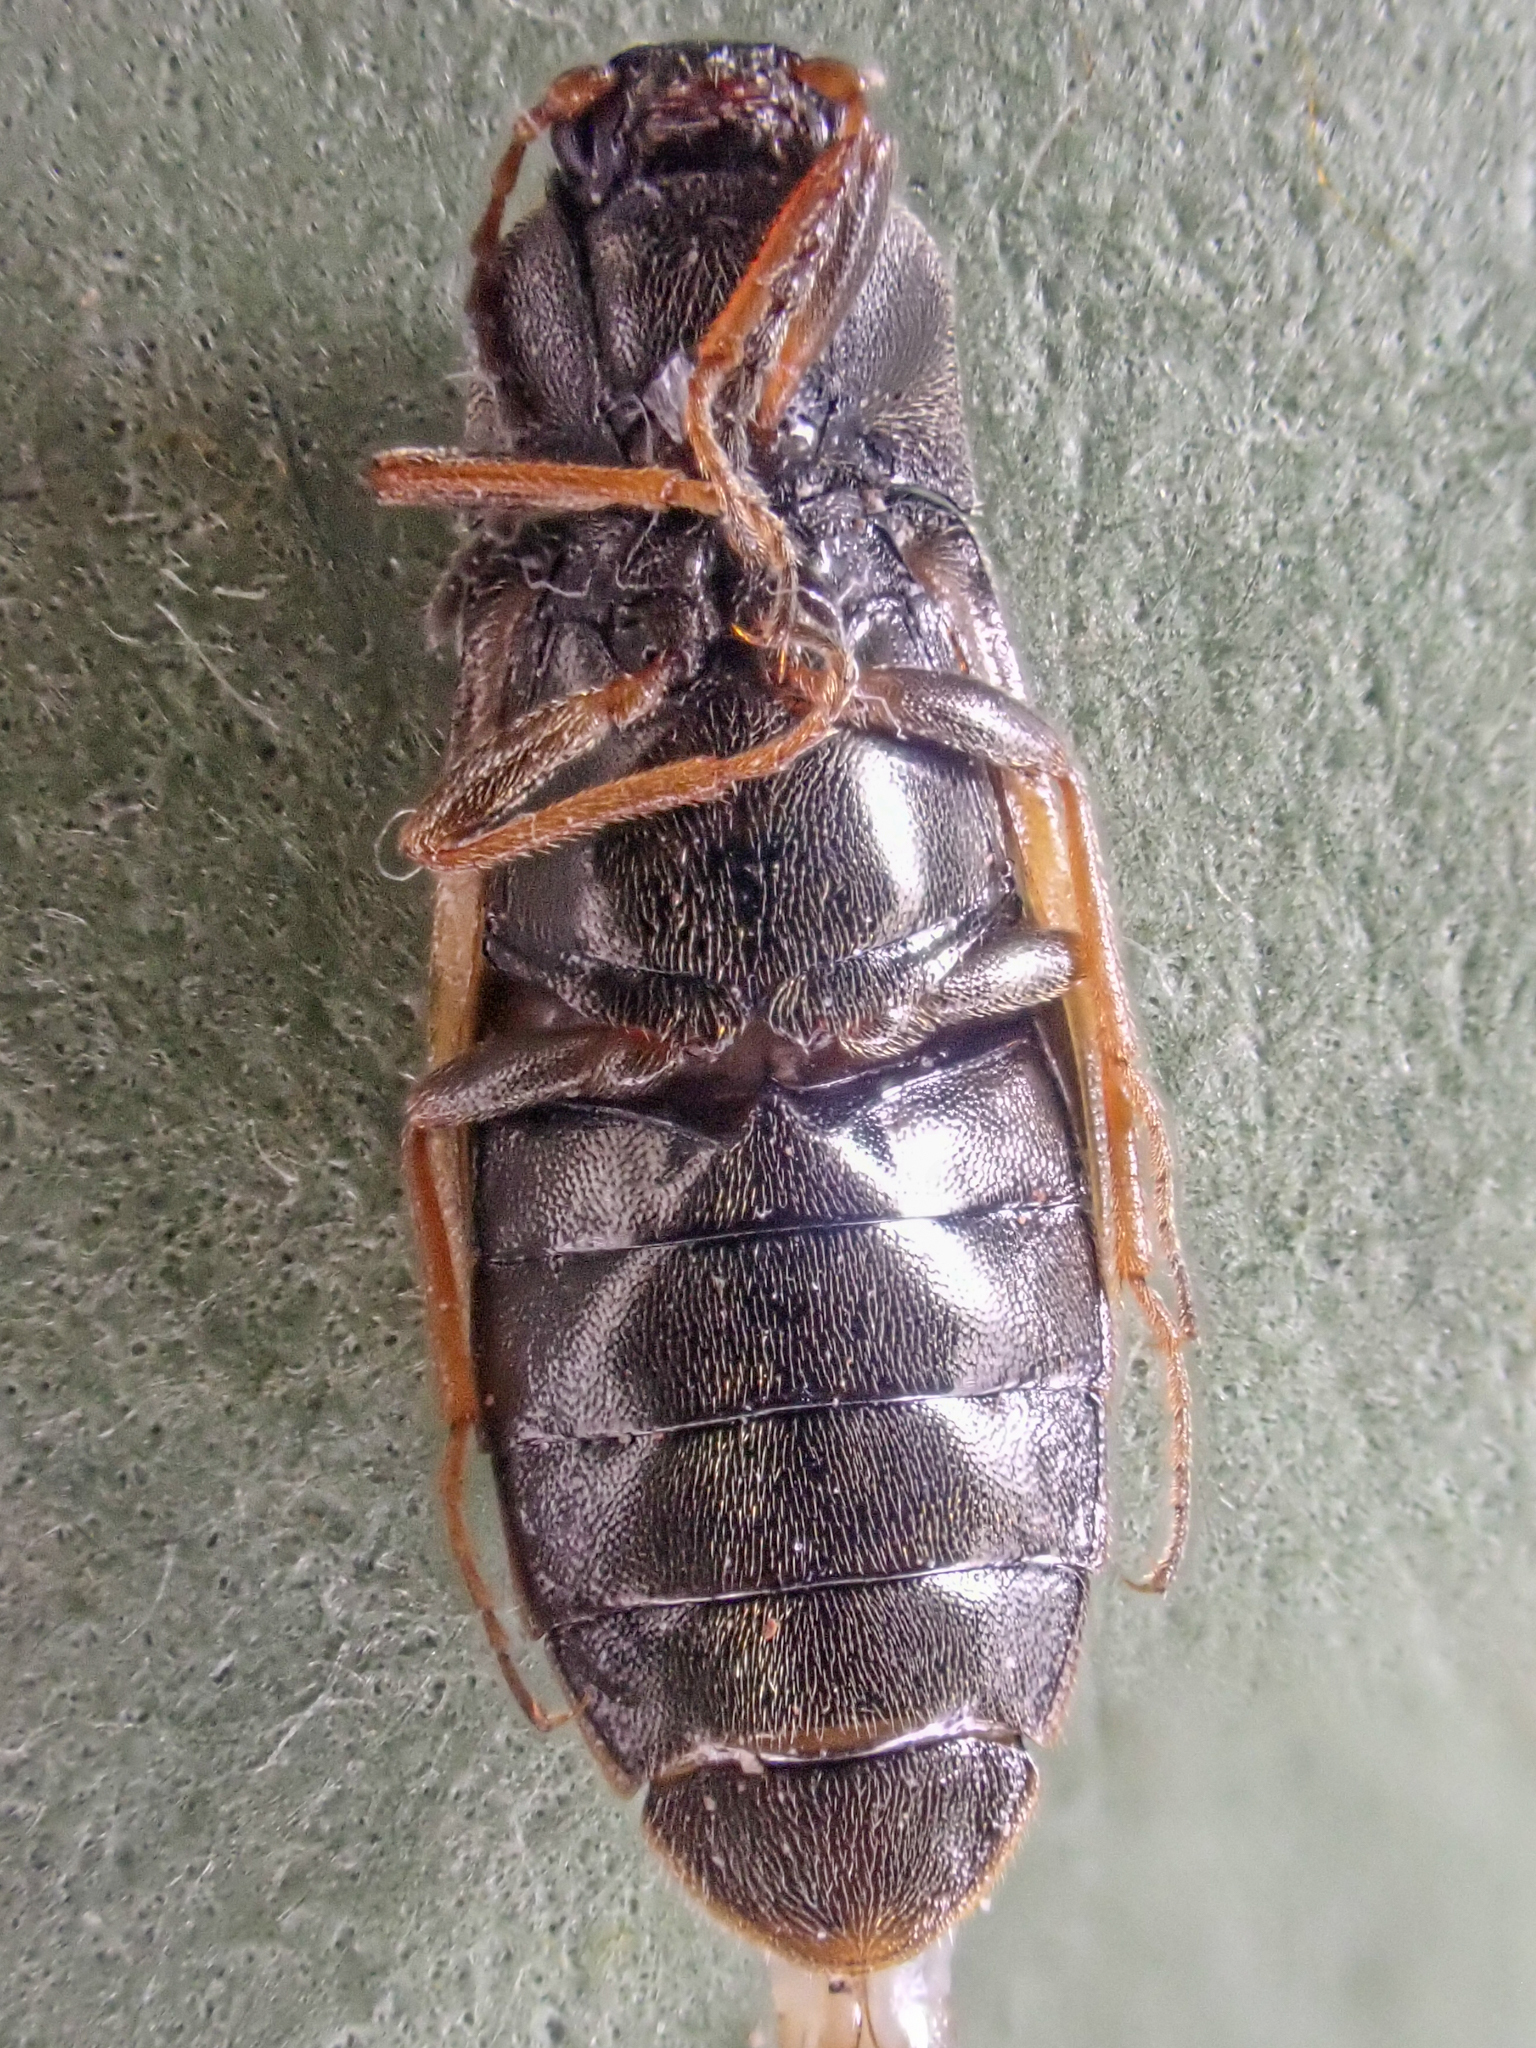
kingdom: Animalia
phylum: Arthropoda
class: Insecta
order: Coleoptera
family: Elateridae
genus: Eanus
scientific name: Eanus granicollis
